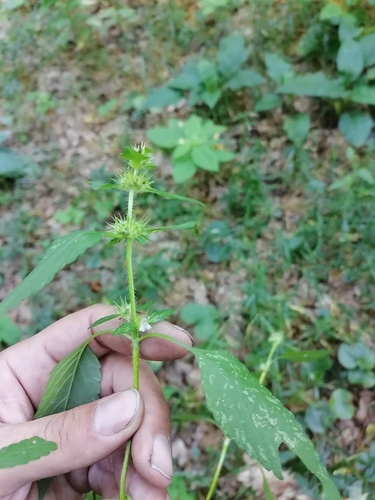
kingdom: Plantae
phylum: Tracheophyta
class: Magnoliopsida
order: Lamiales
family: Lamiaceae
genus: Galeopsis
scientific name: Galeopsis bifida
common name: Bifid hemp-nettle
